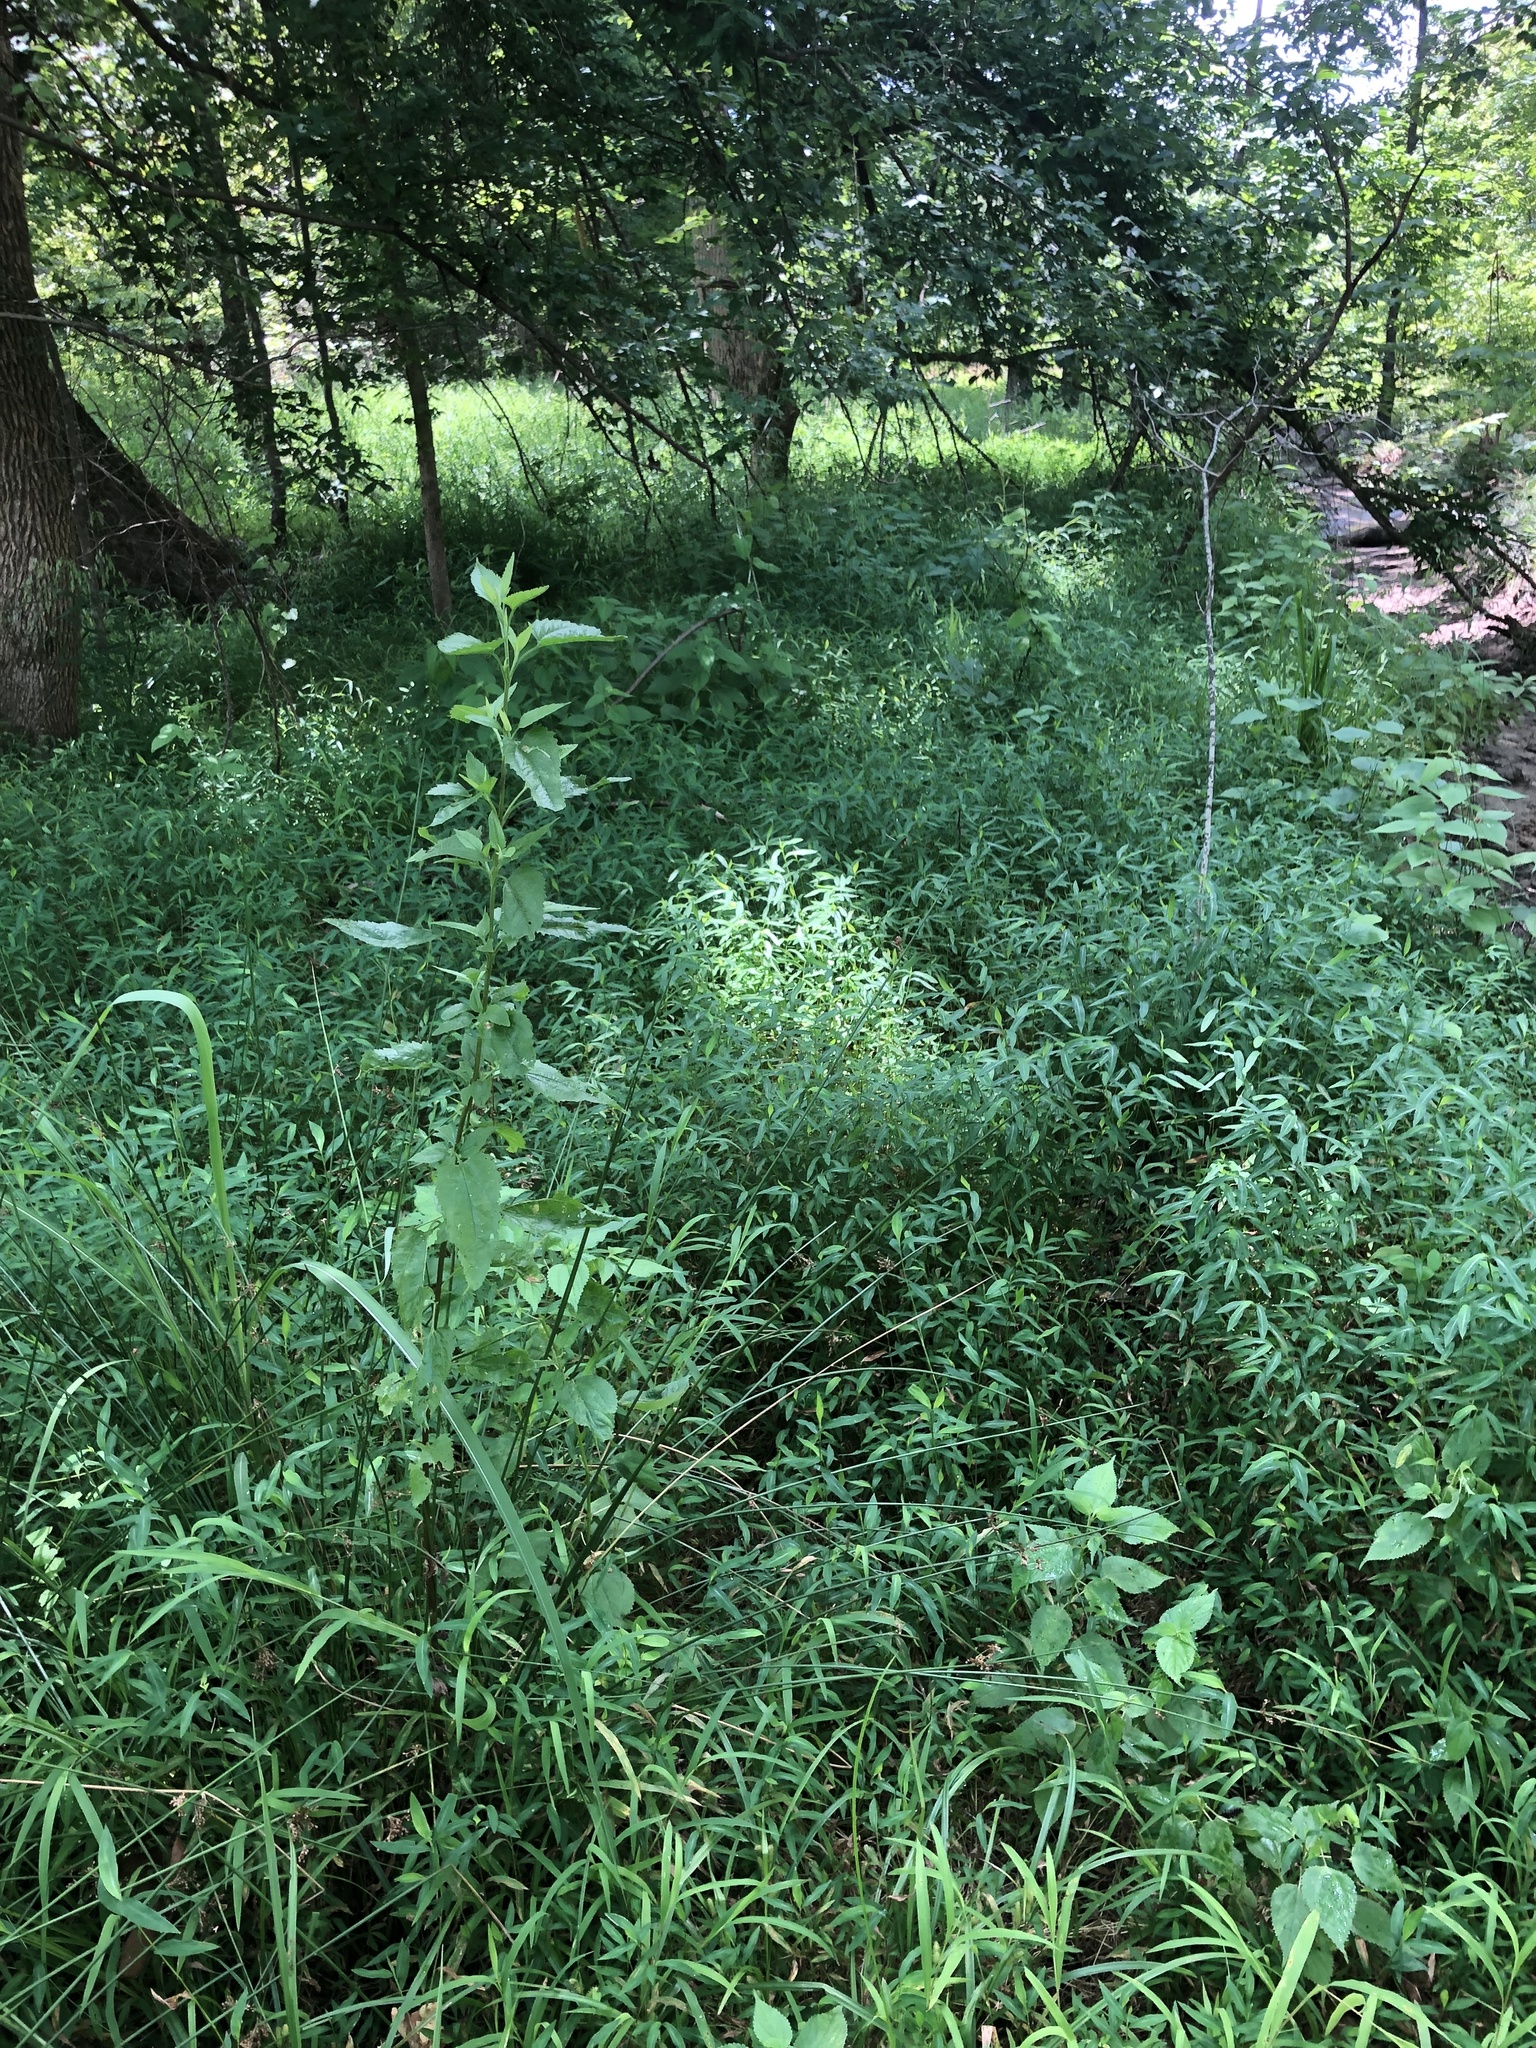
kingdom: Plantae
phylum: Tracheophyta
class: Liliopsida
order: Poales
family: Poaceae
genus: Microstegium
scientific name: Microstegium vimineum
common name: Japanese stiltgrass
